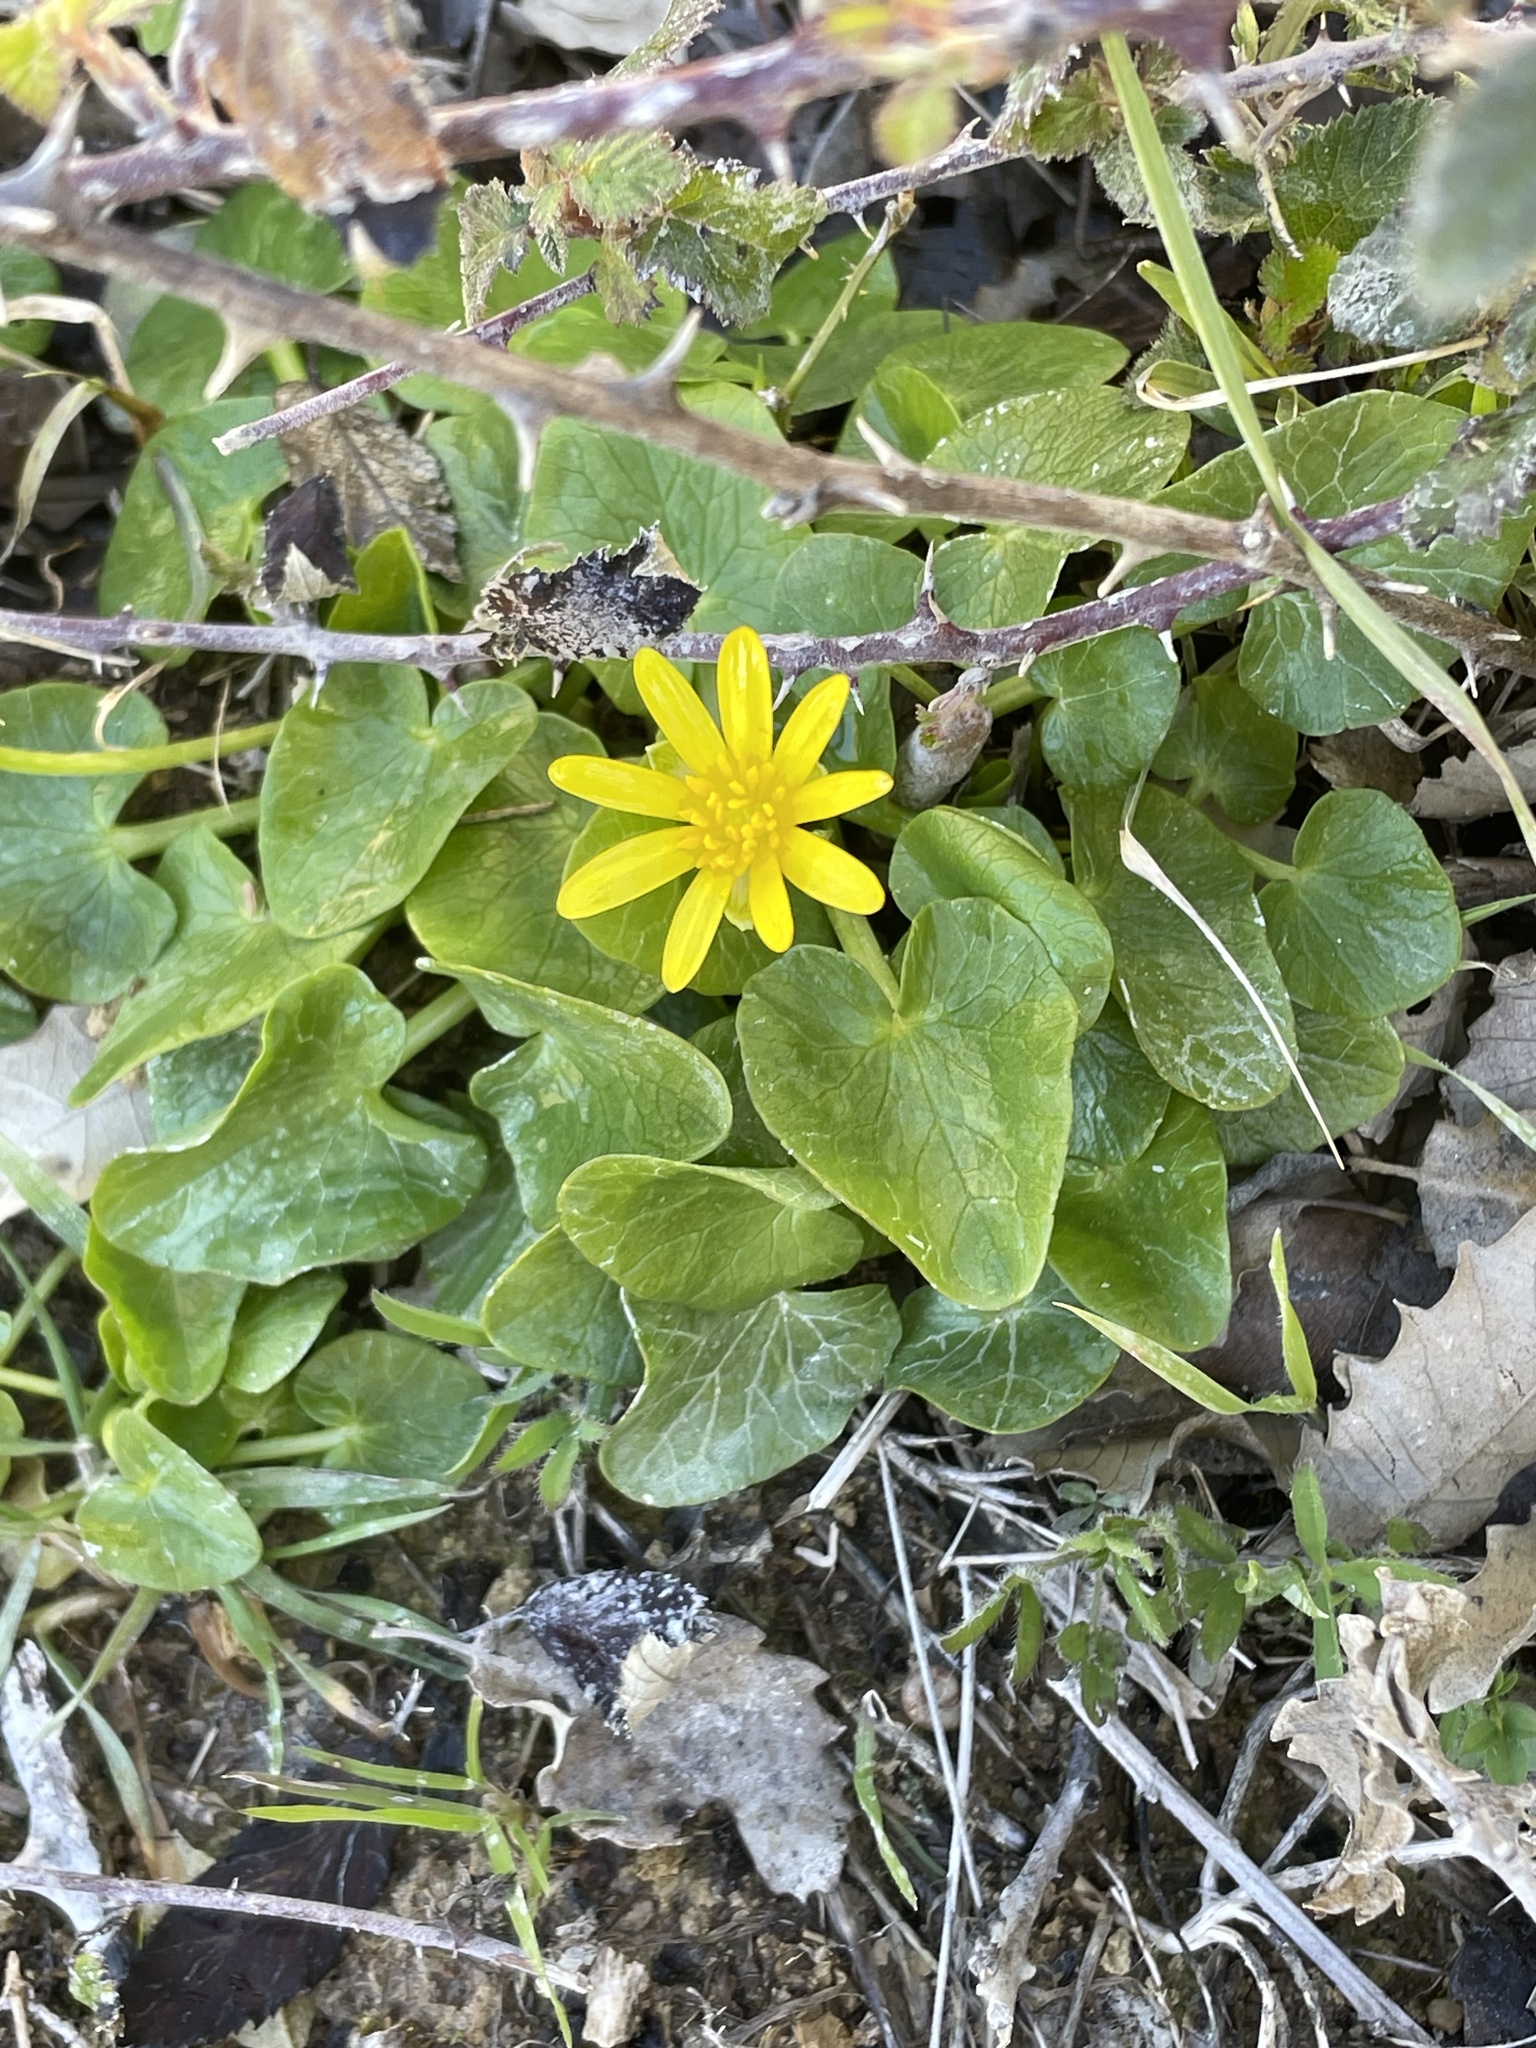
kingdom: Plantae
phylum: Tracheophyta
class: Magnoliopsida
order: Ranunculales
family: Ranunculaceae
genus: Ficaria
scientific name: Ficaria verna
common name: Lesser celandine
